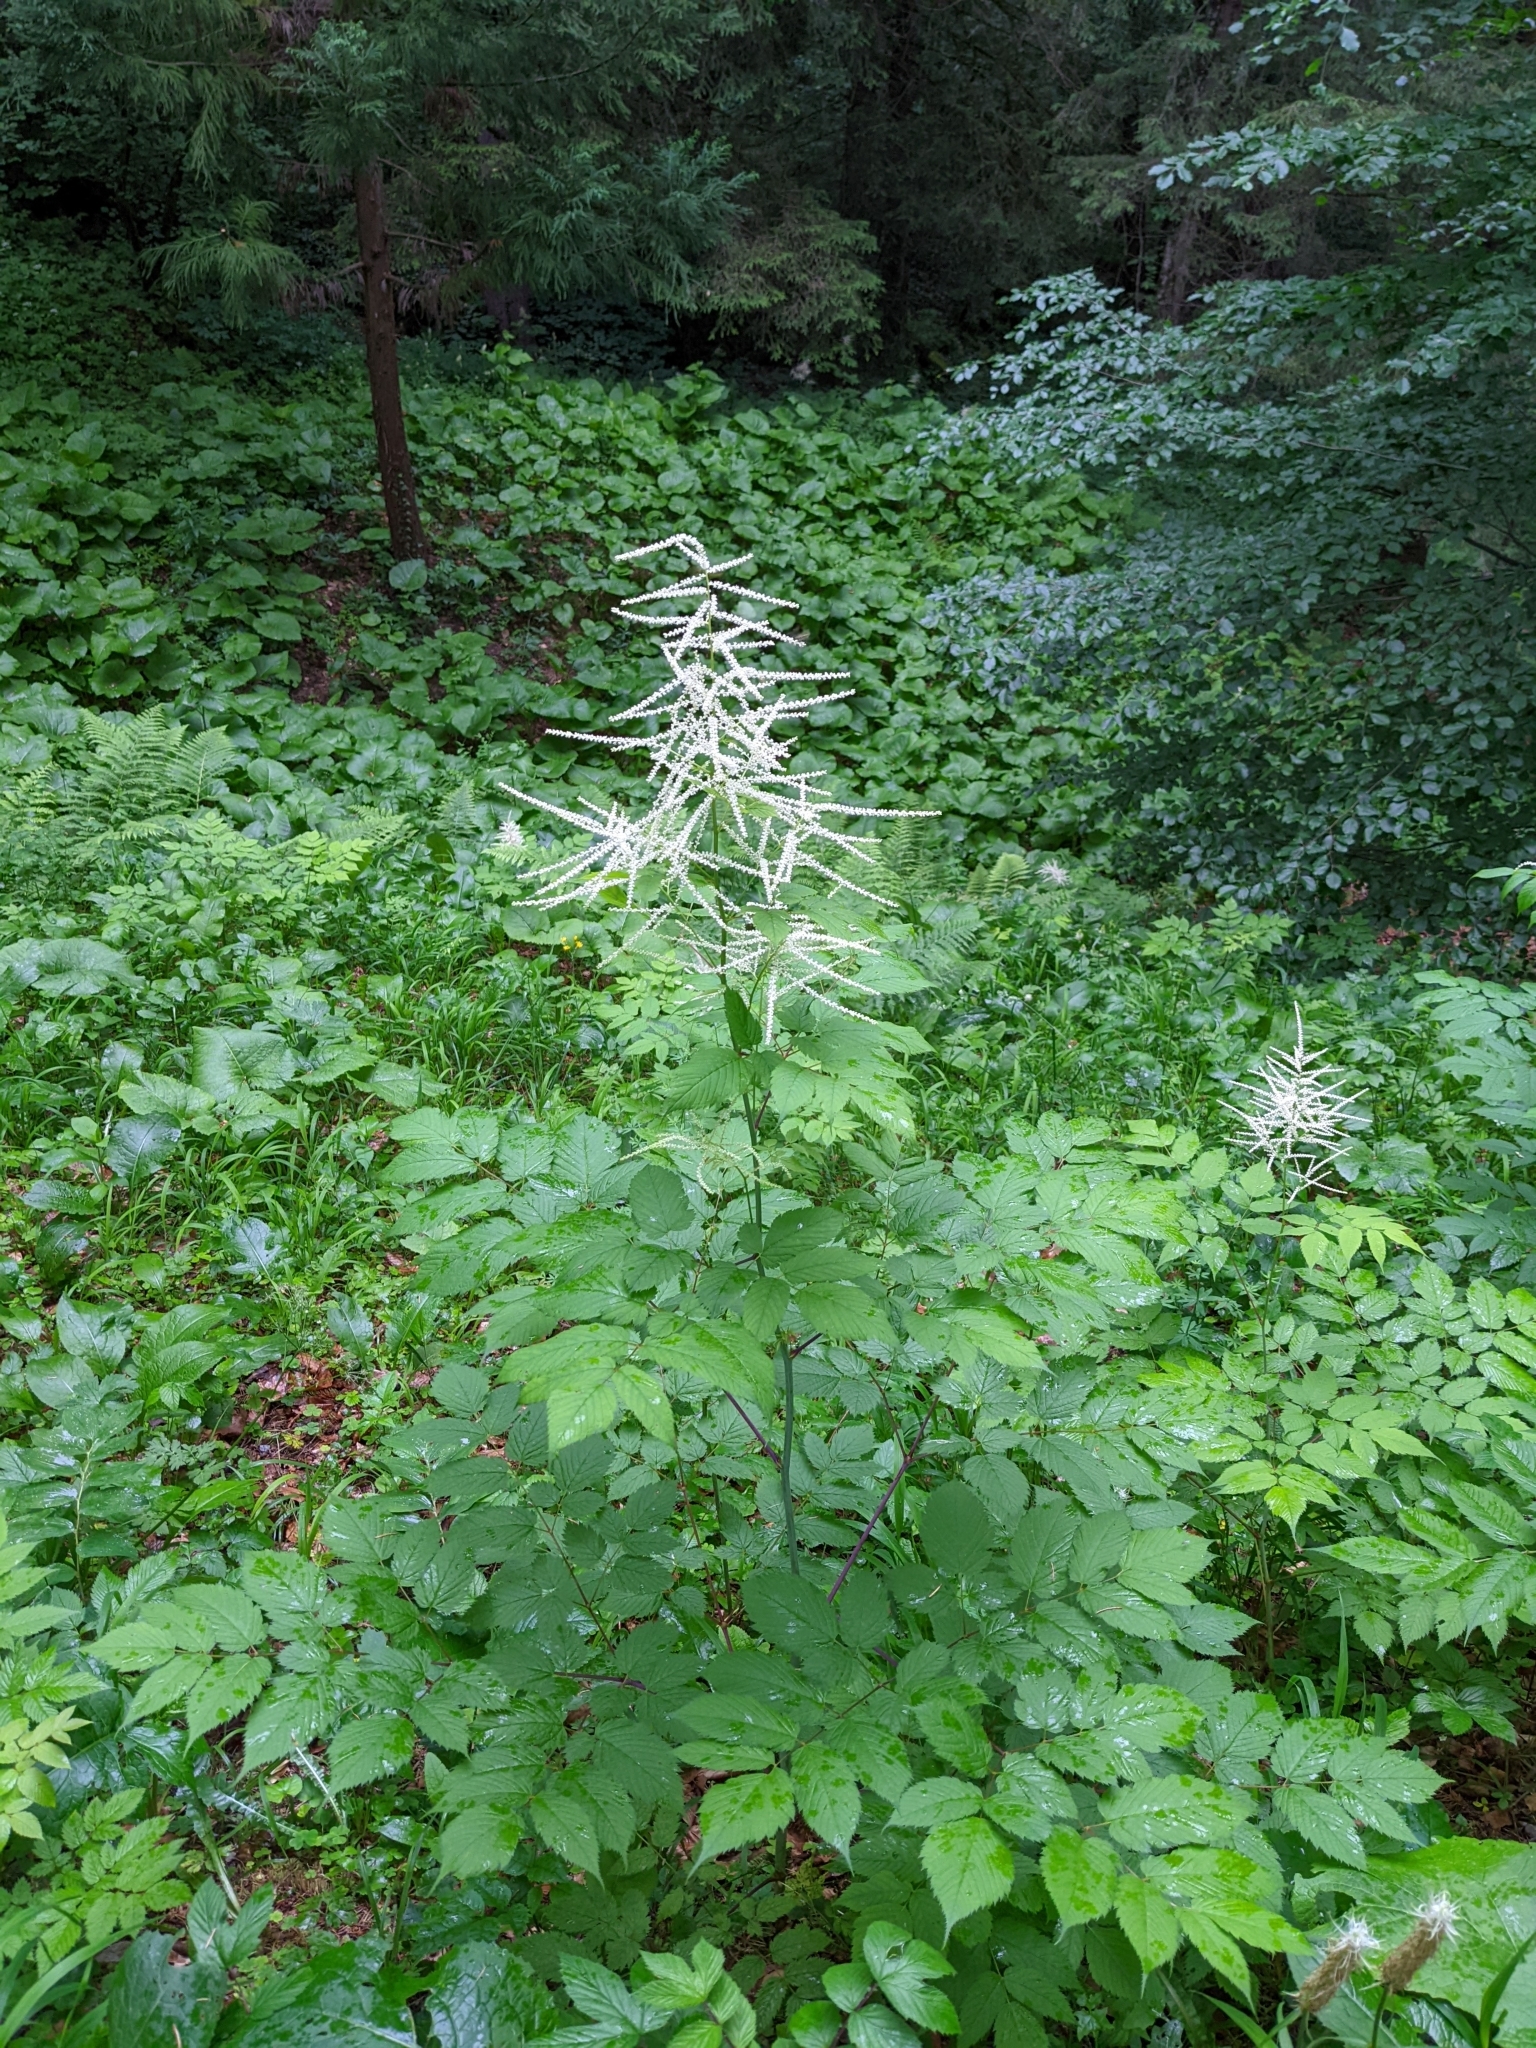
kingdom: Plantae
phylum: Tracheophyta
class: Magnoliopsida
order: Rosales
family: Rosaceae
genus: Aruncus
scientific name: Aruncus dioicus
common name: Buck's-beard
